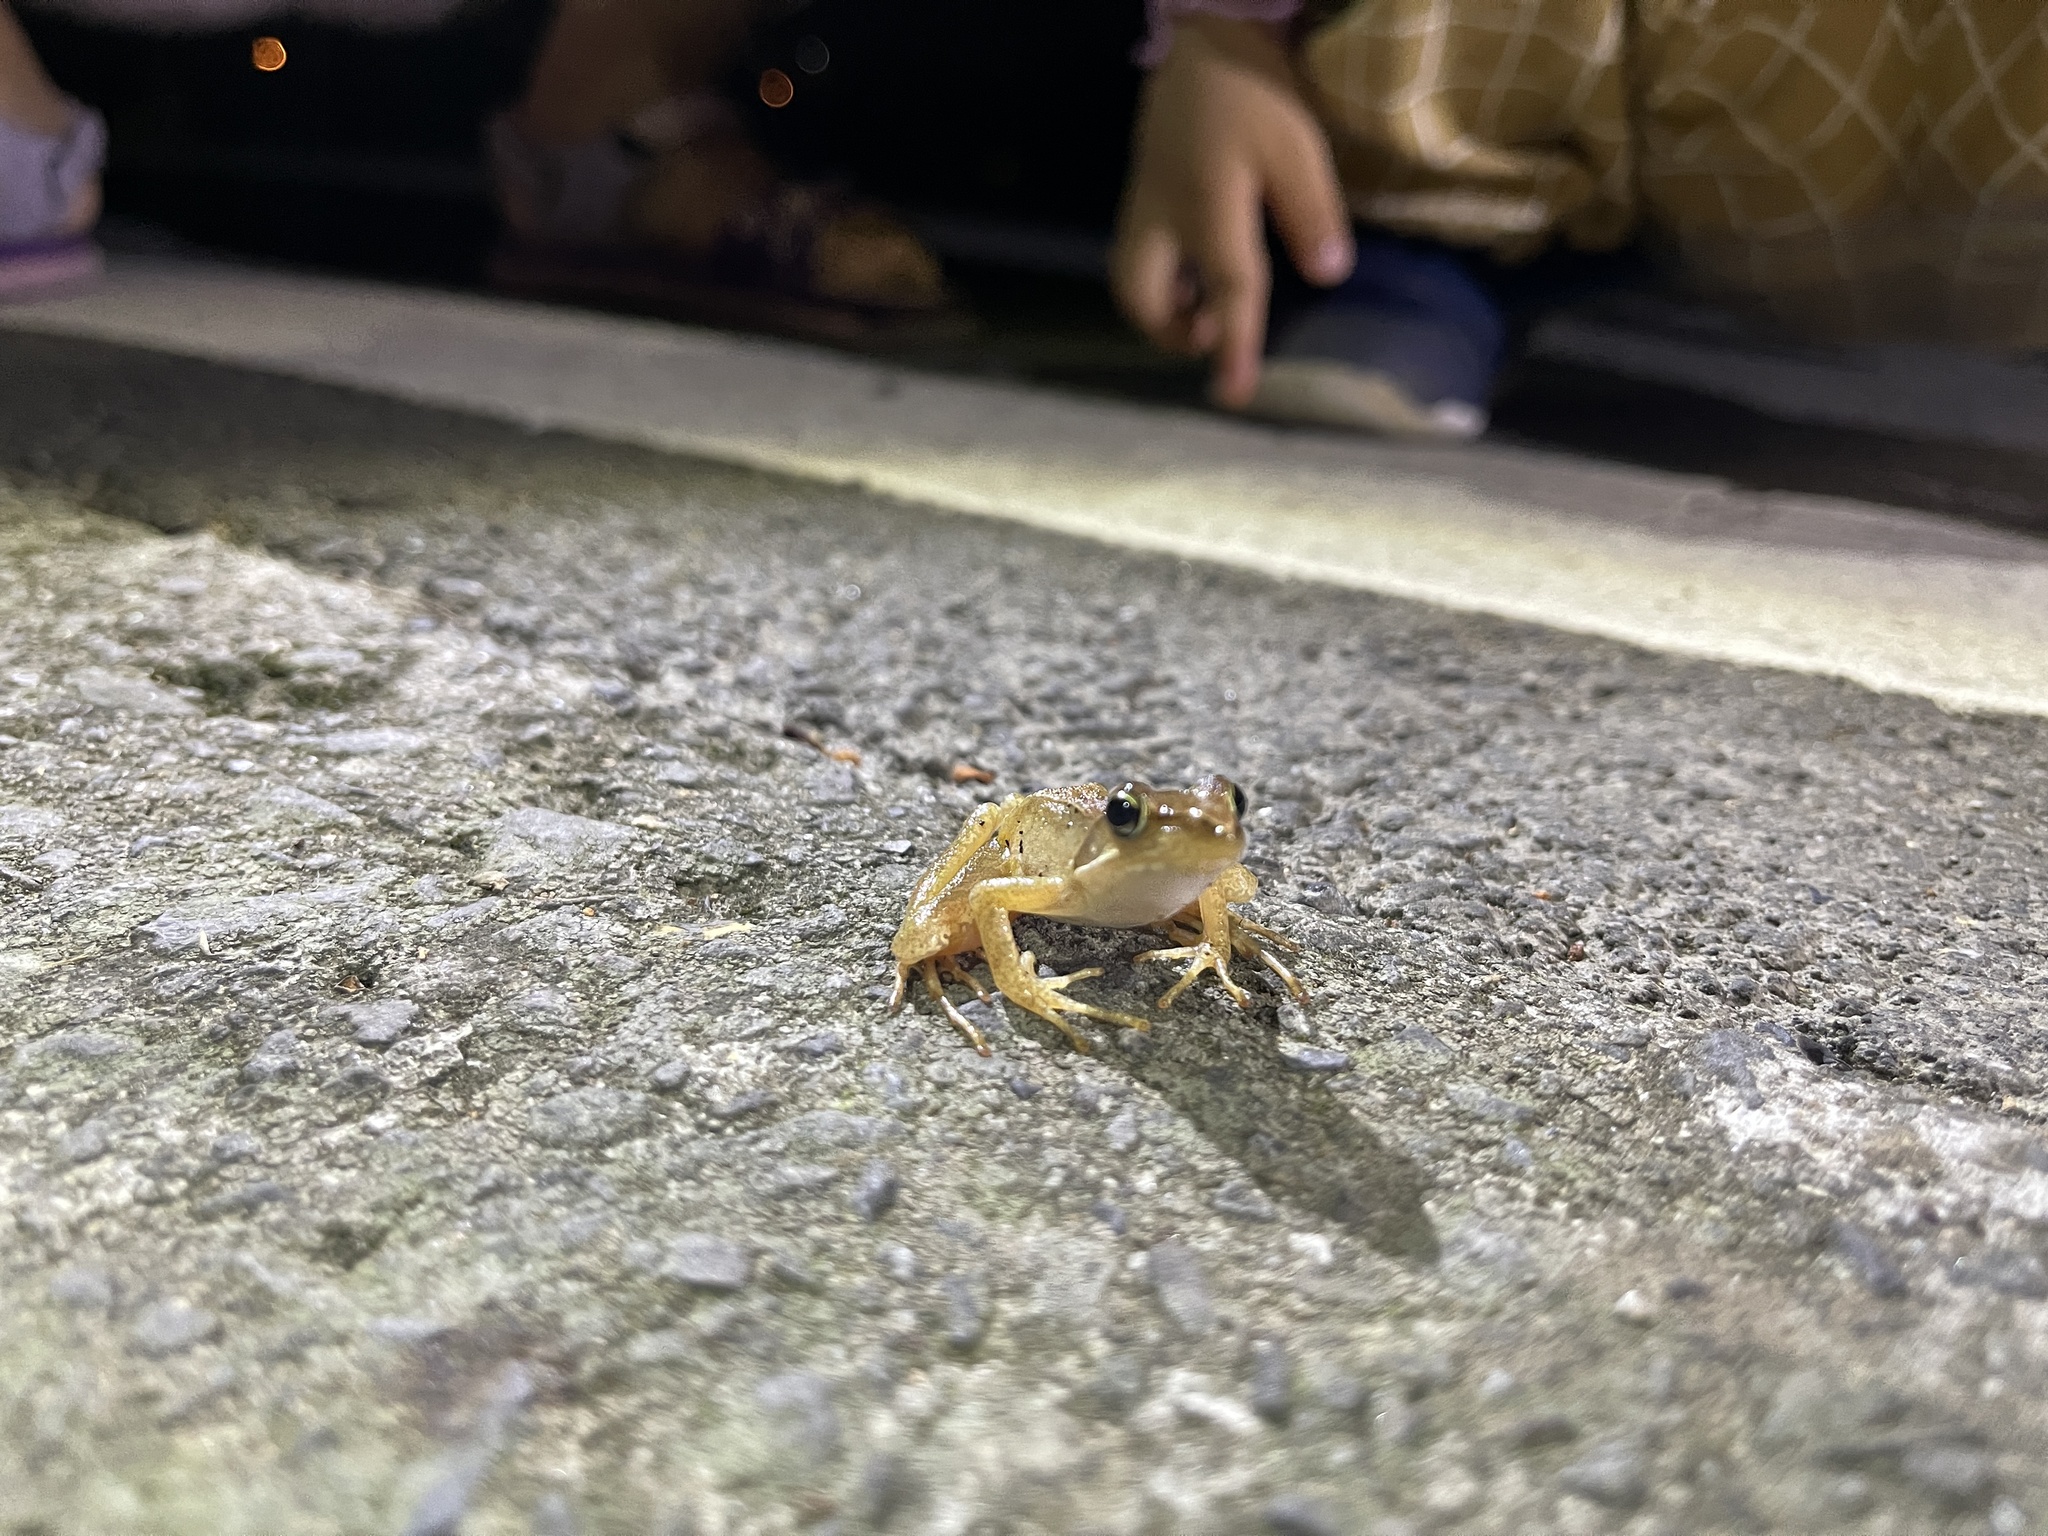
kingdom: Animalia
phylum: Chordata
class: Amphibia
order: Anura
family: Ranidae
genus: Rana
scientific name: Rana longicrus
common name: Long-legged brown frog
